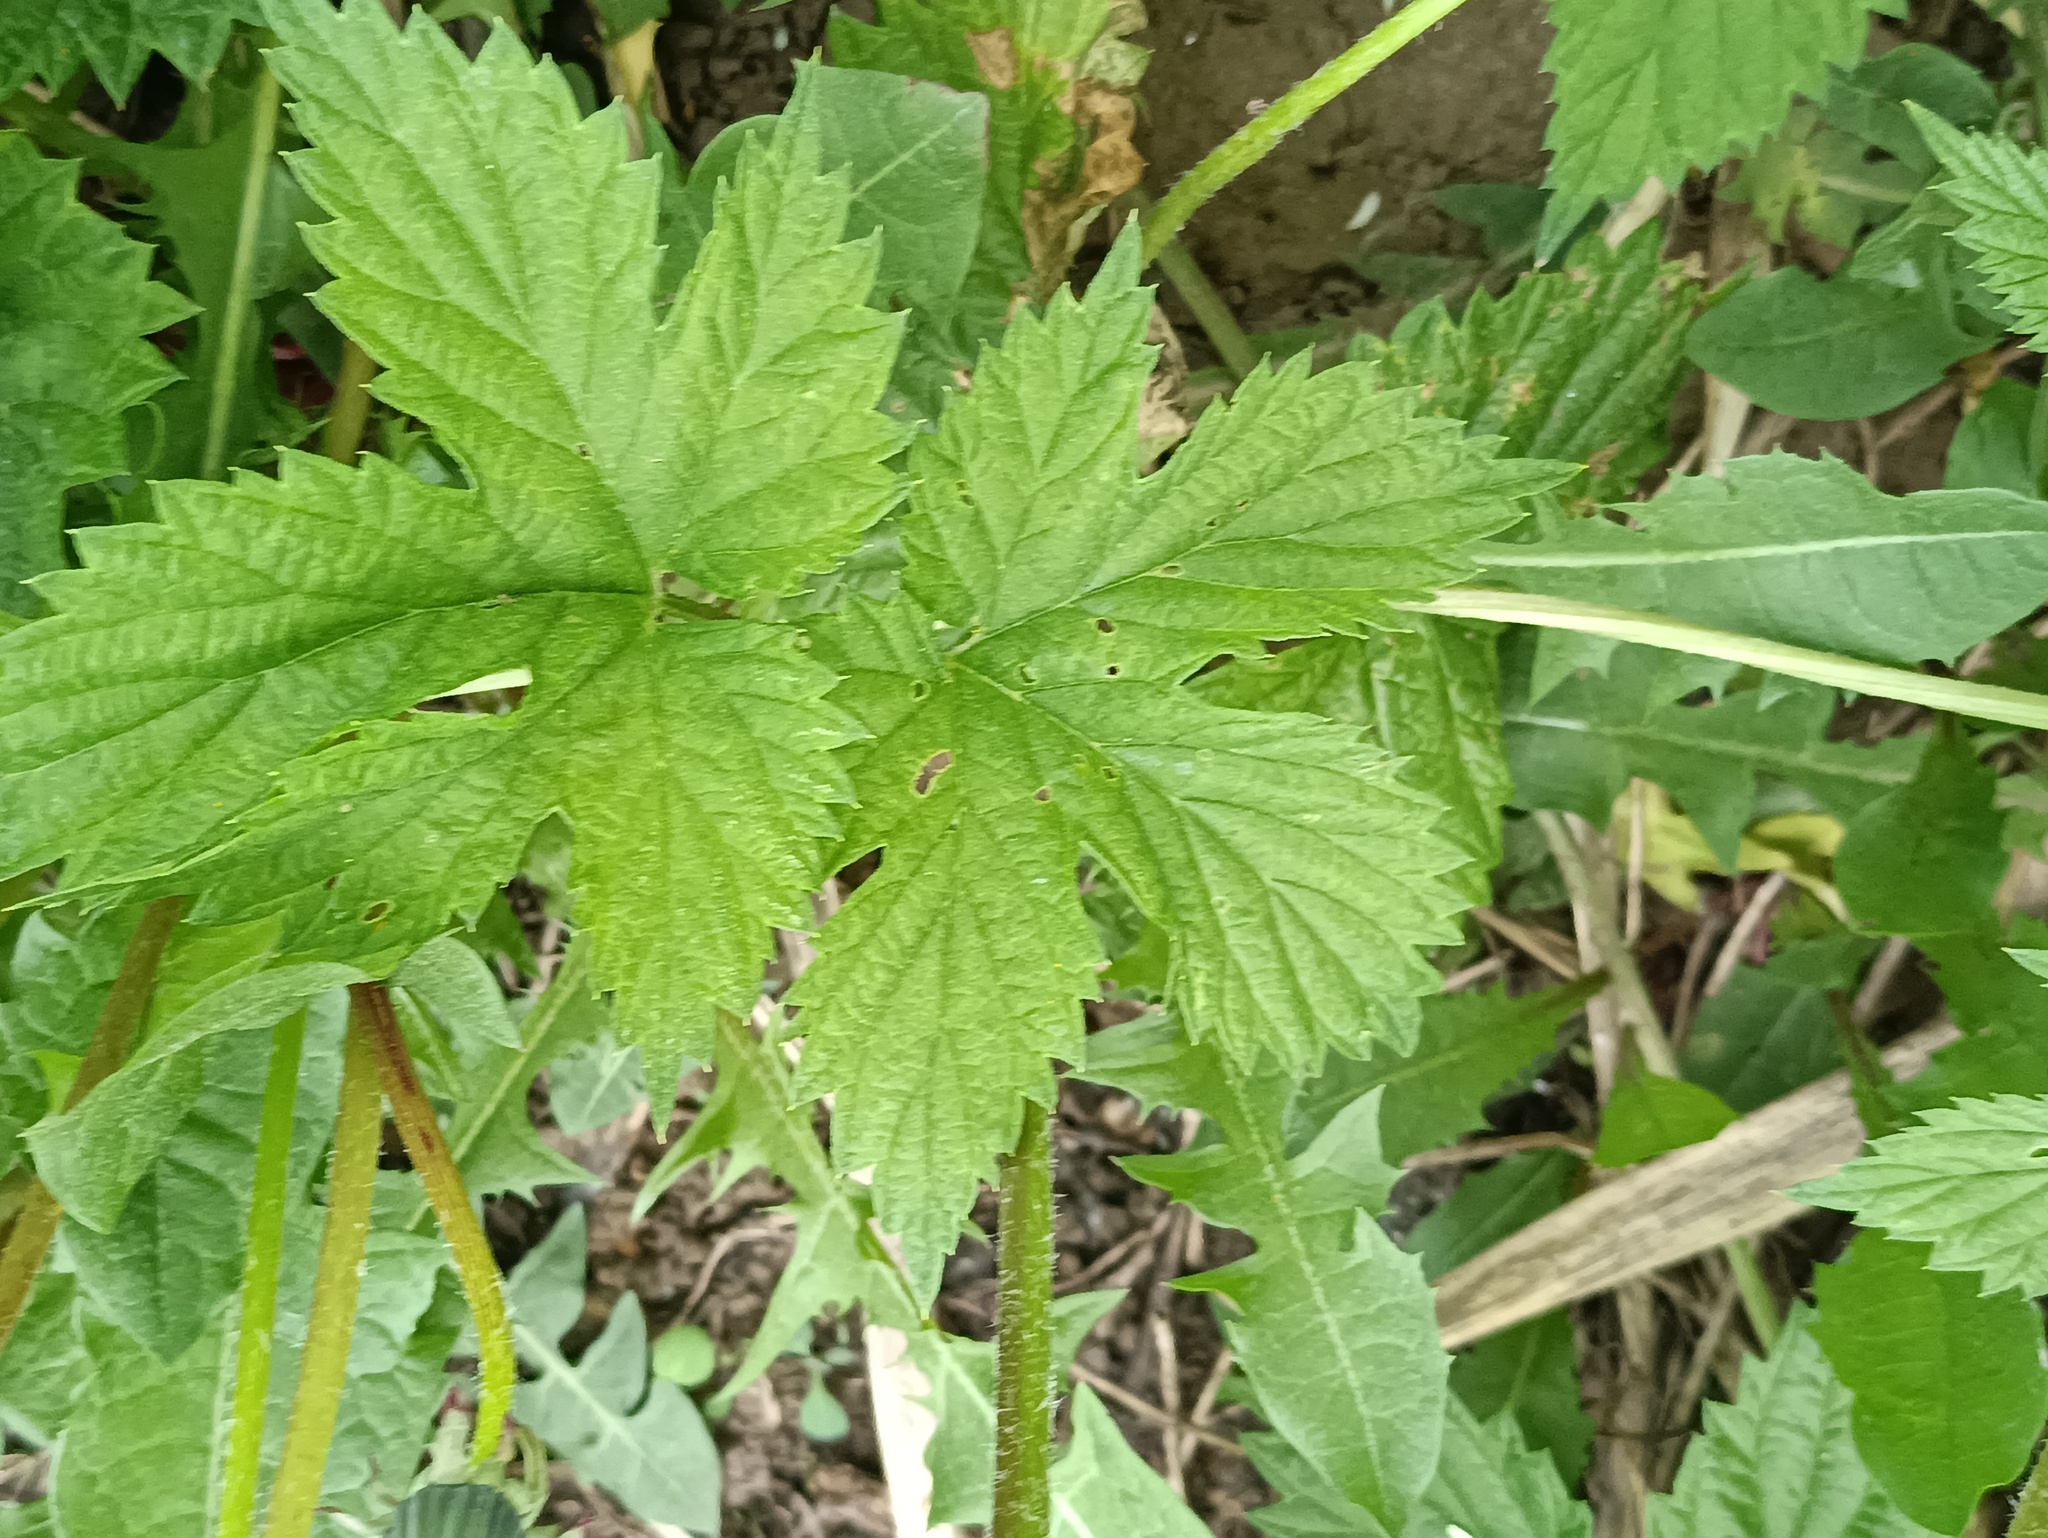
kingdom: Plantae
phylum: Tracheophyta
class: Magnoliopsida
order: Rosales
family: Cannabaceae
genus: Humulus
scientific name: Humulus lupulus
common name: Hop
